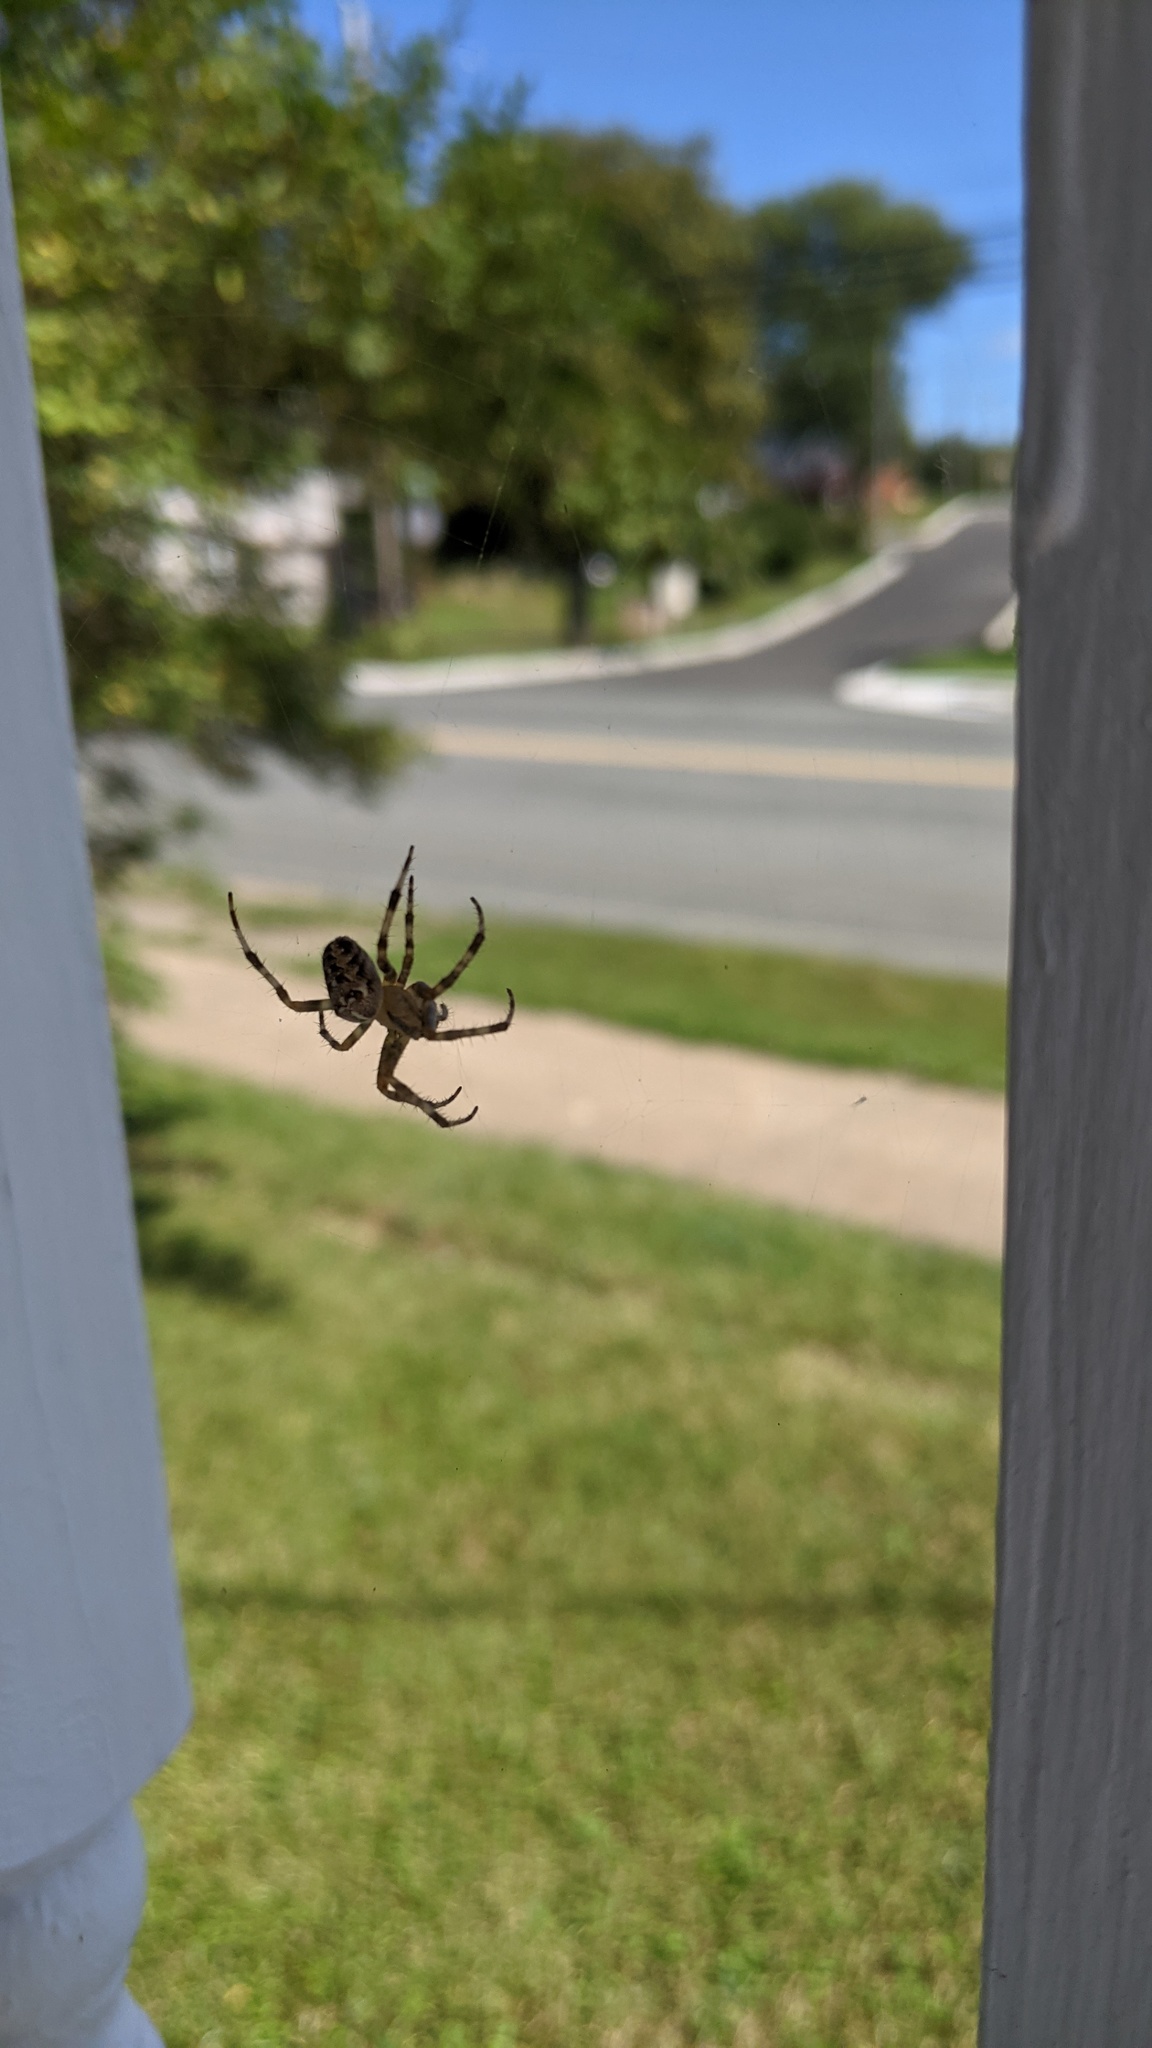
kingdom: Animalia
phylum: Arthropoda
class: Arachnida
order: Araneae
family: Araneidae
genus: Araneus
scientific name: Araneus diadematus
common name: Cross orbweaver
